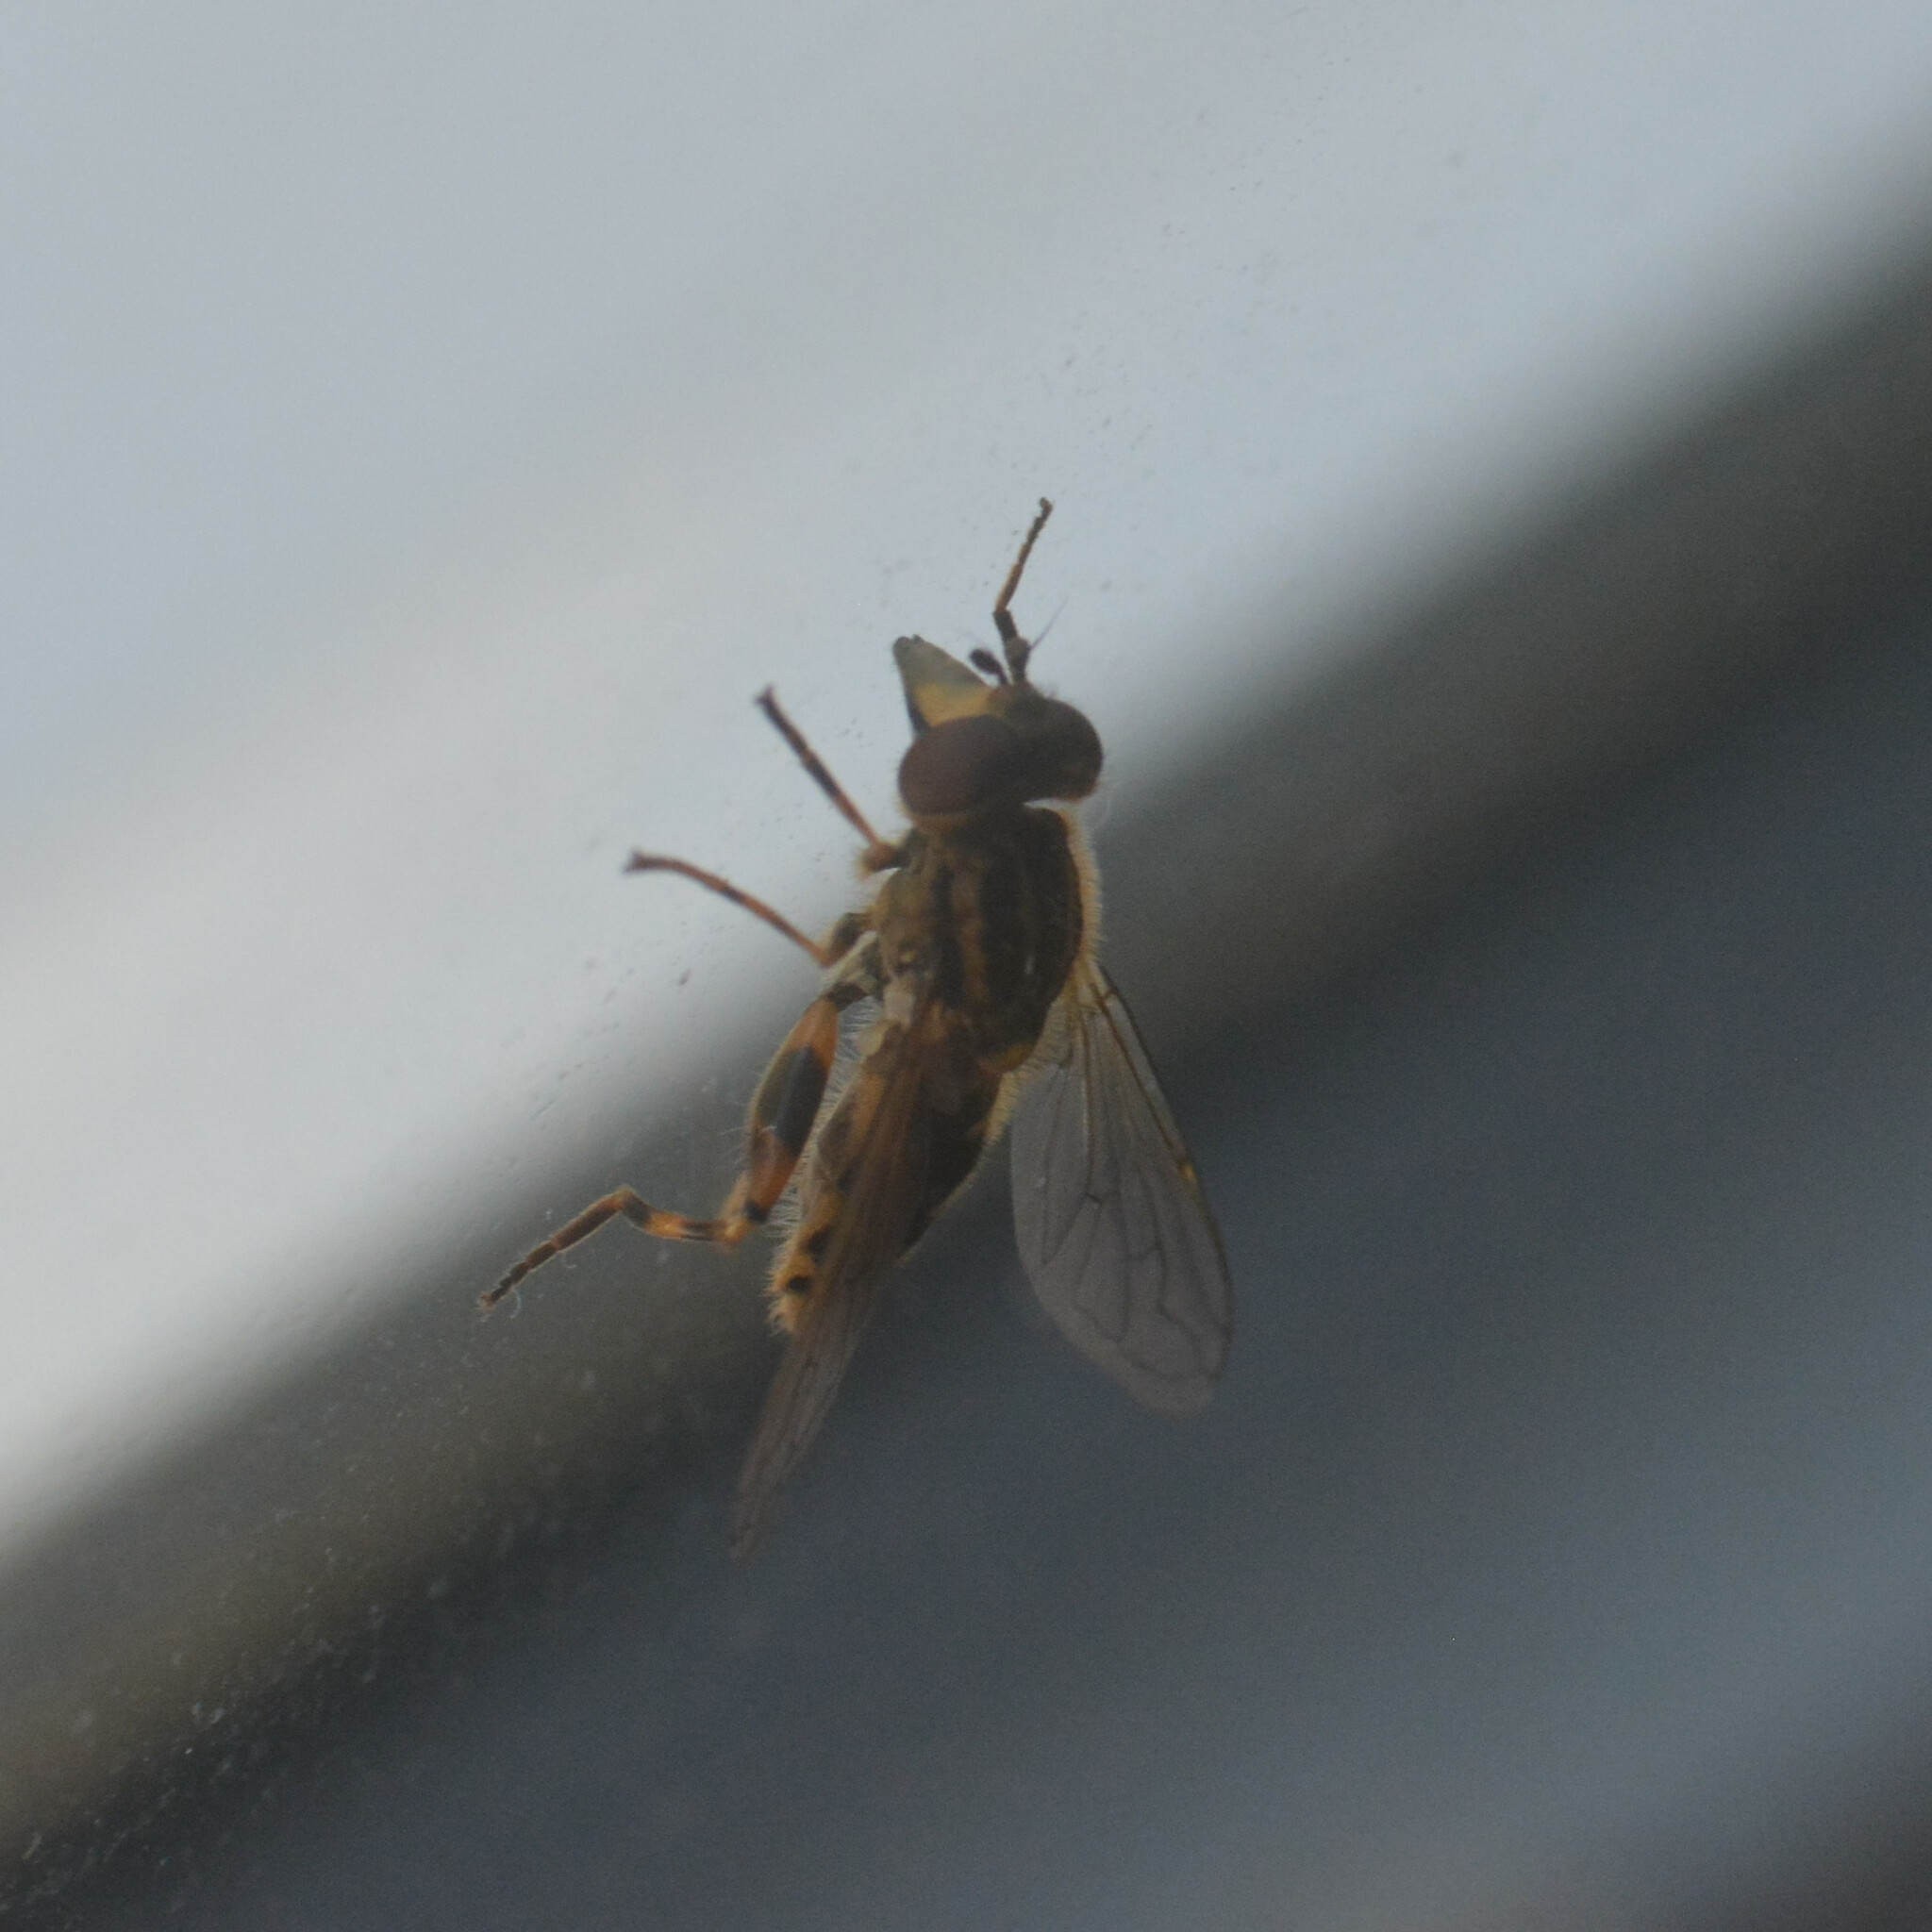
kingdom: Animalia
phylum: Arthropoda
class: Insecta
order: Diptera
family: Syrphidae
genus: Eurimyia
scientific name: Eurimyia lineatus
